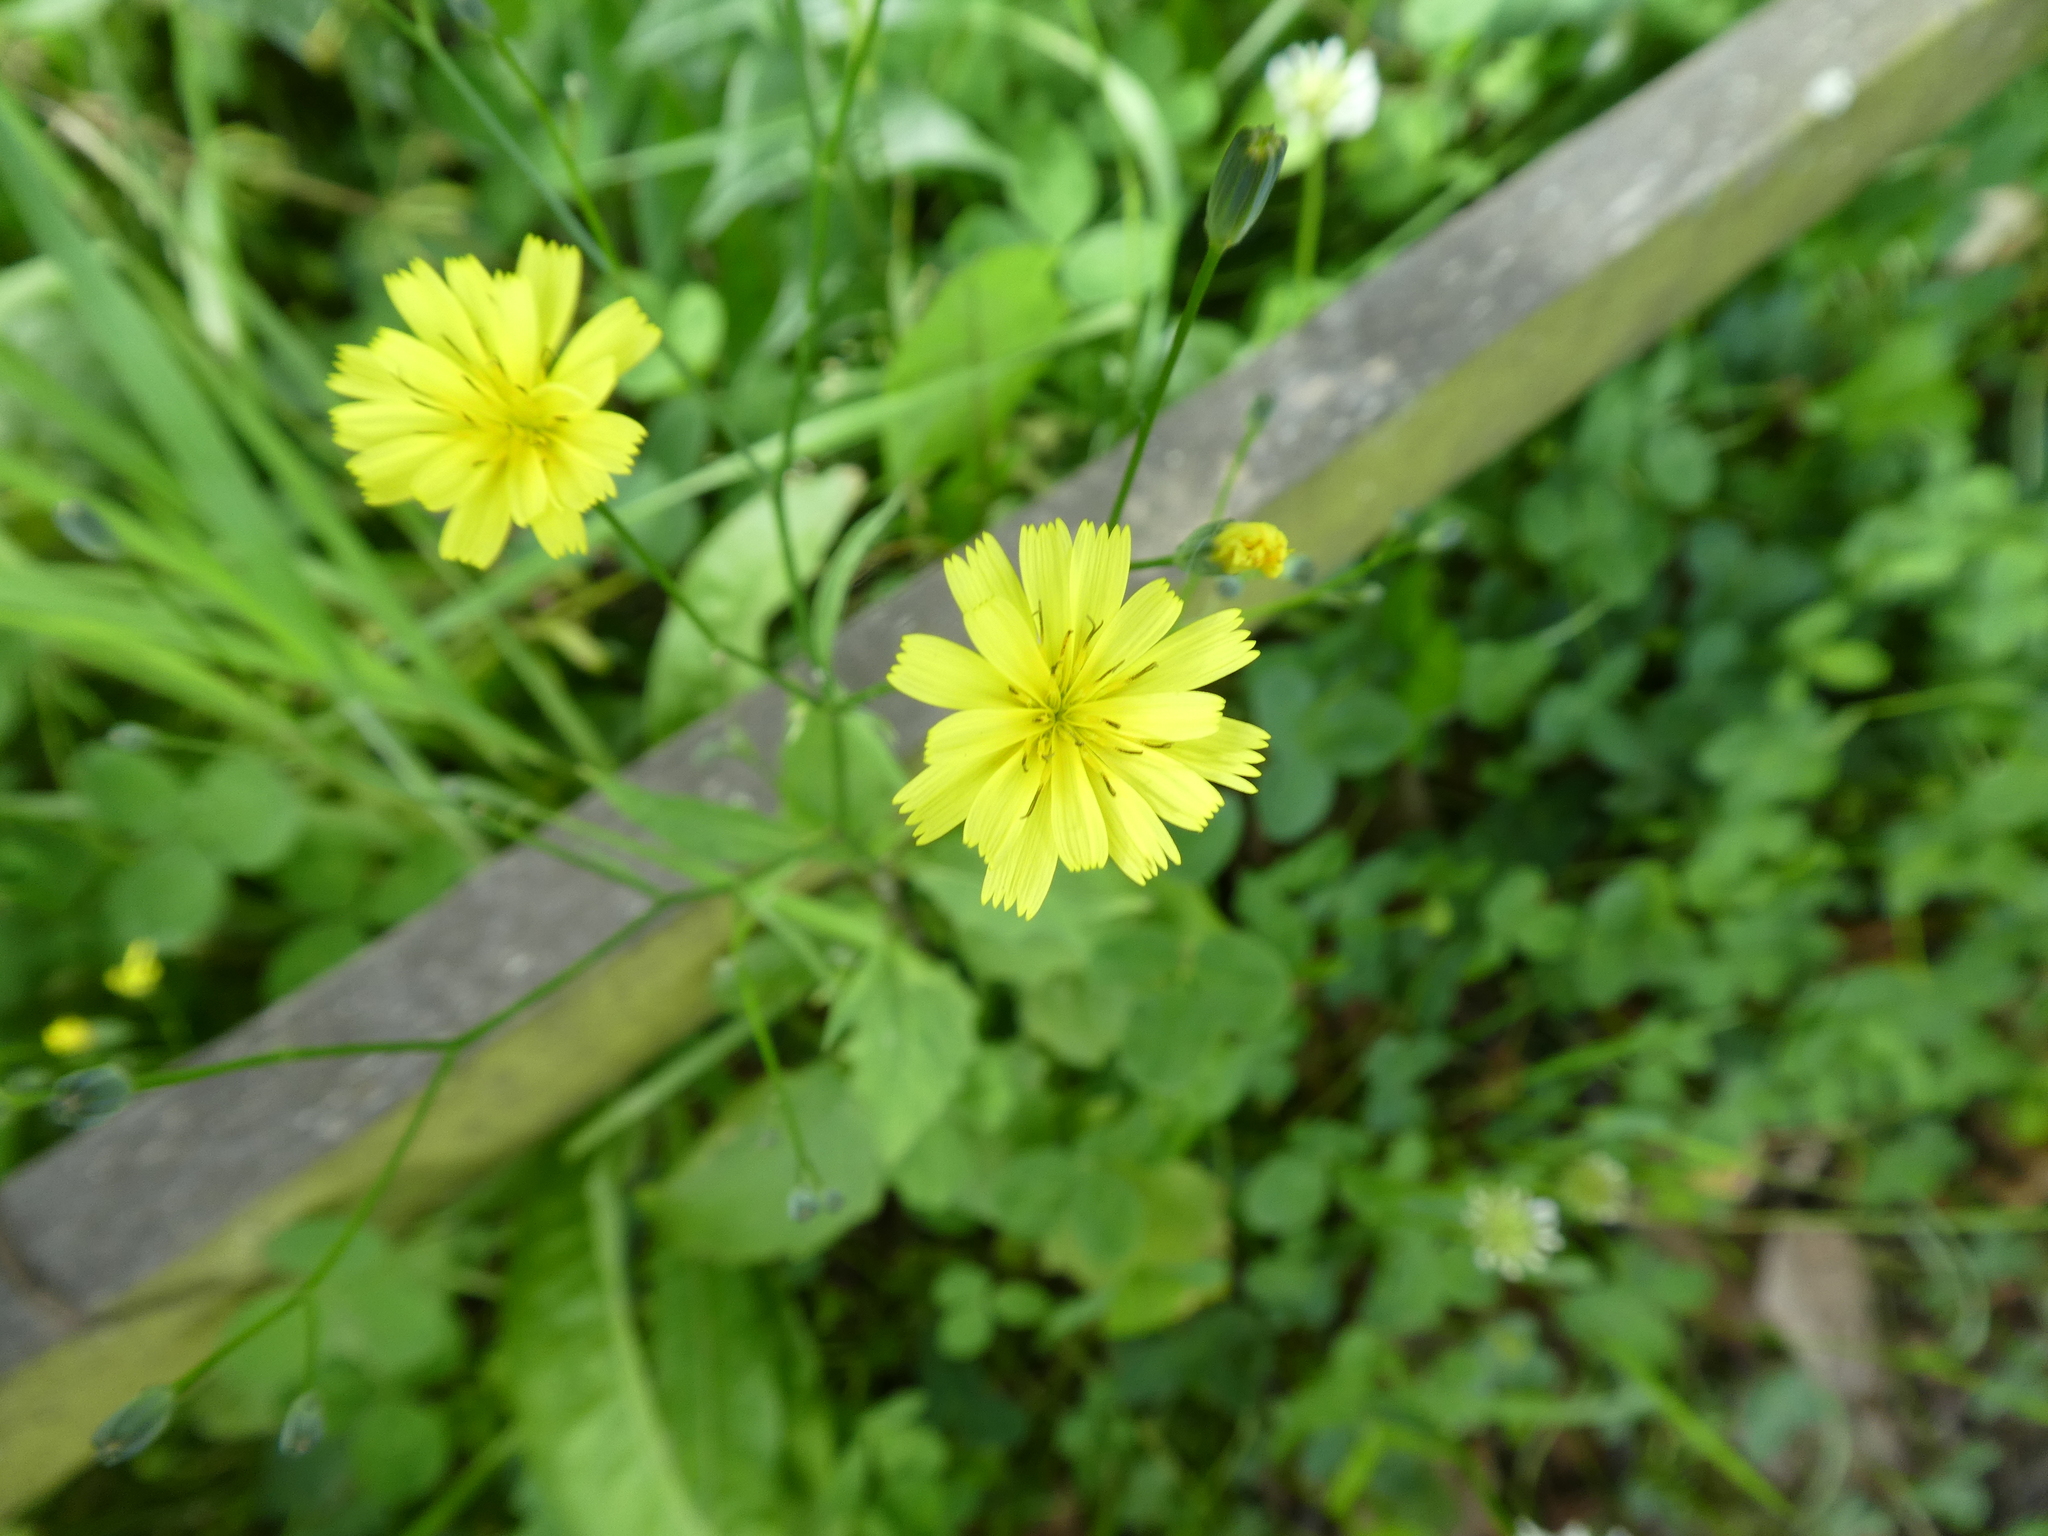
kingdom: Plantae
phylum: Tracheophyta
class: Magnoliopsida
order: Asterales
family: Asteraceae
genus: Lapsana
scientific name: Lapsana communis
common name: Nipplewort
